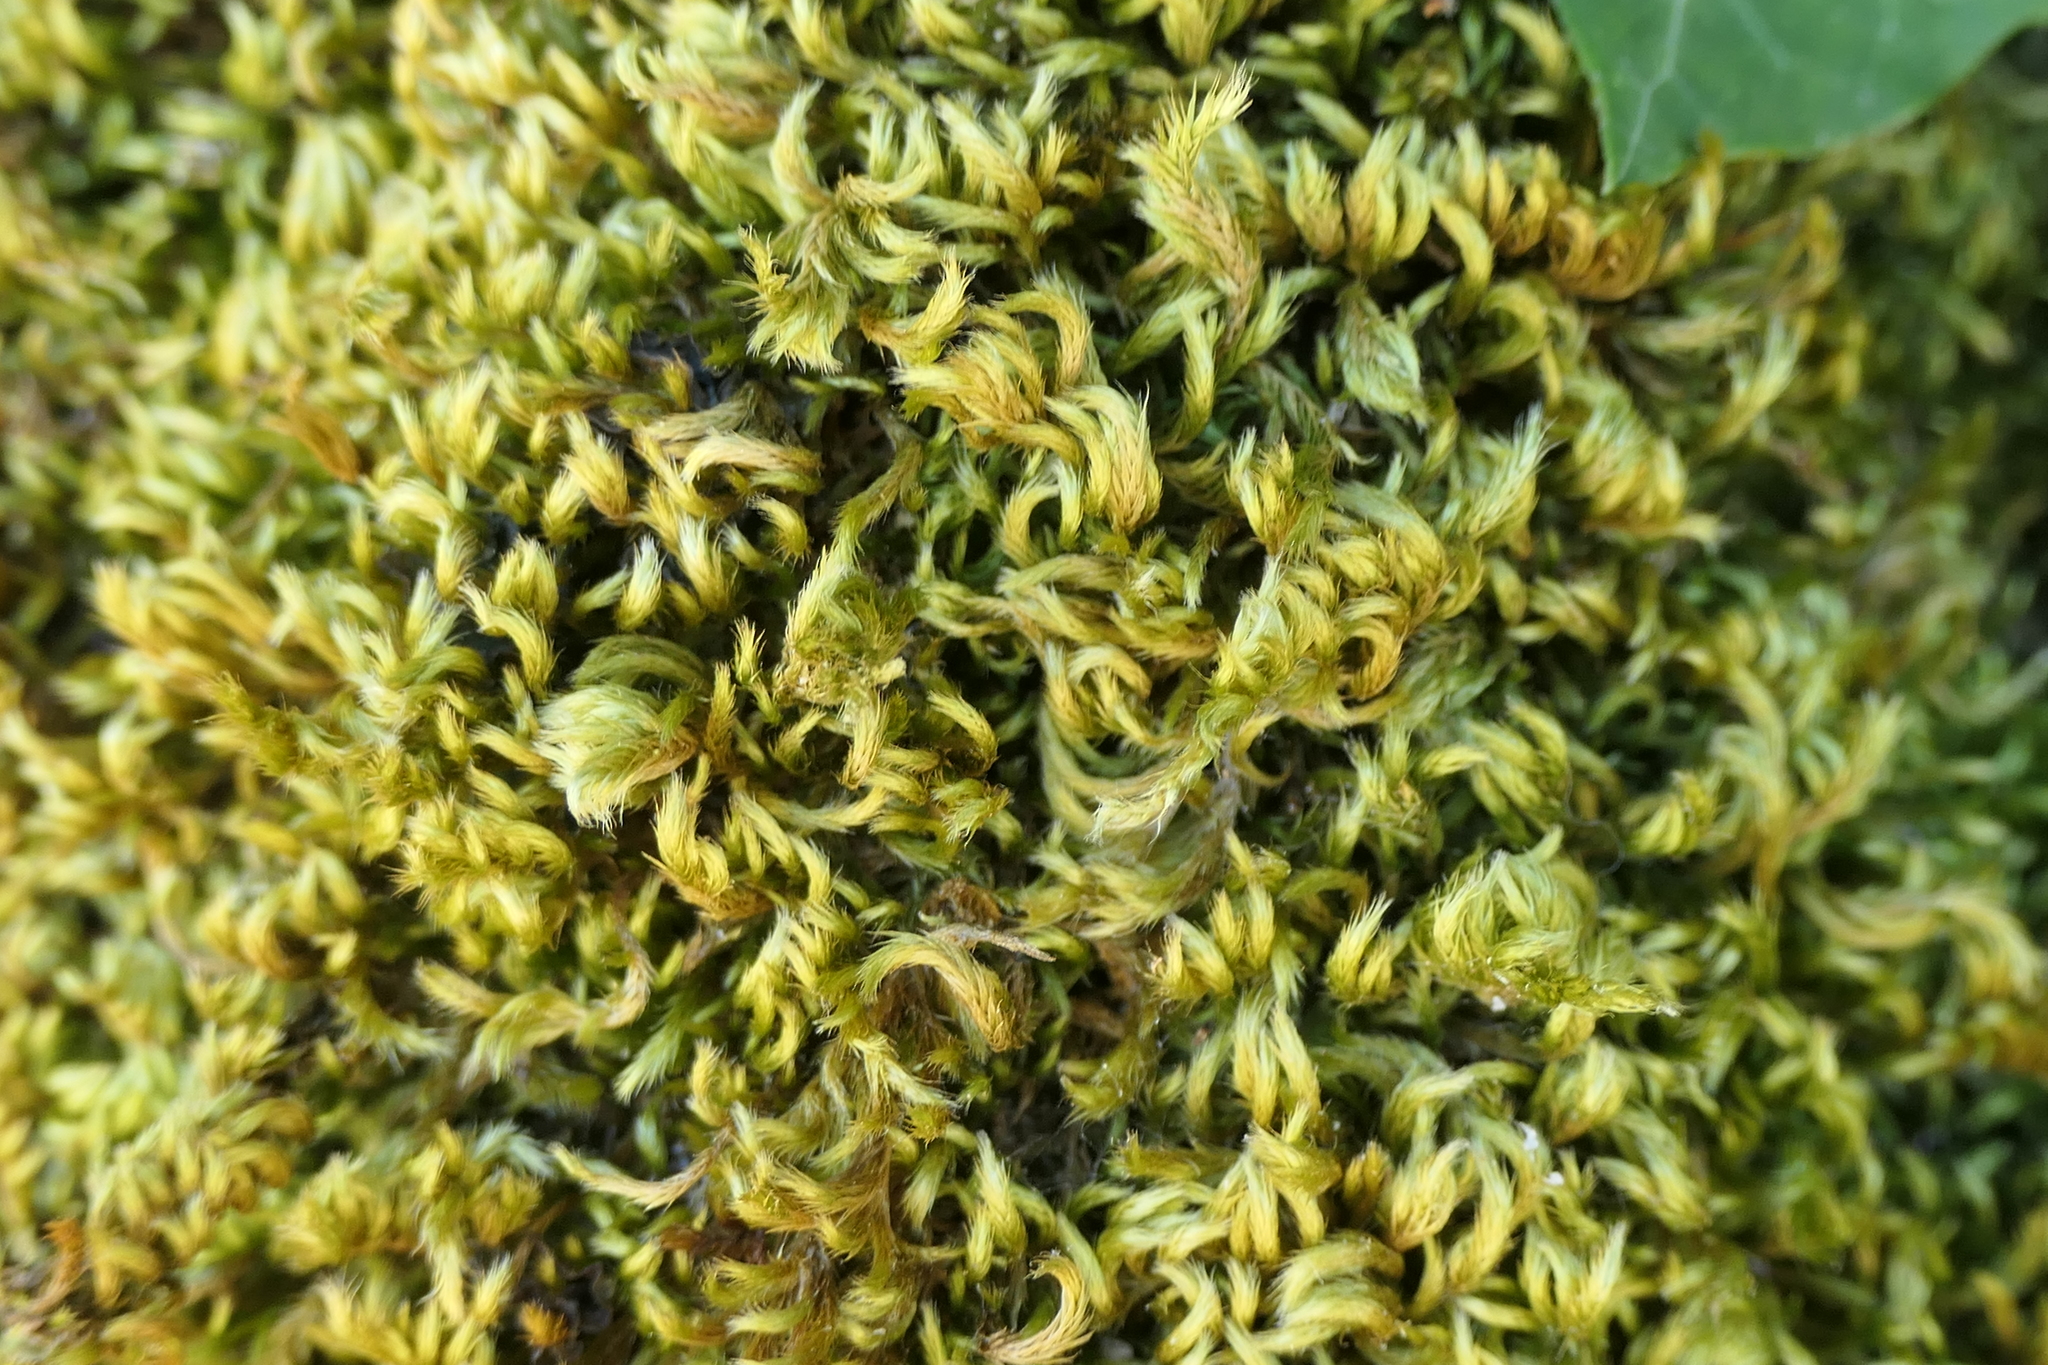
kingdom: Plantae
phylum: Bryophyta
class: Bryopsida
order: Hypnales
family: Brachytheciaceae
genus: Homalothecium
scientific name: Homalothecium sericeum
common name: Silky wall feather-moss
